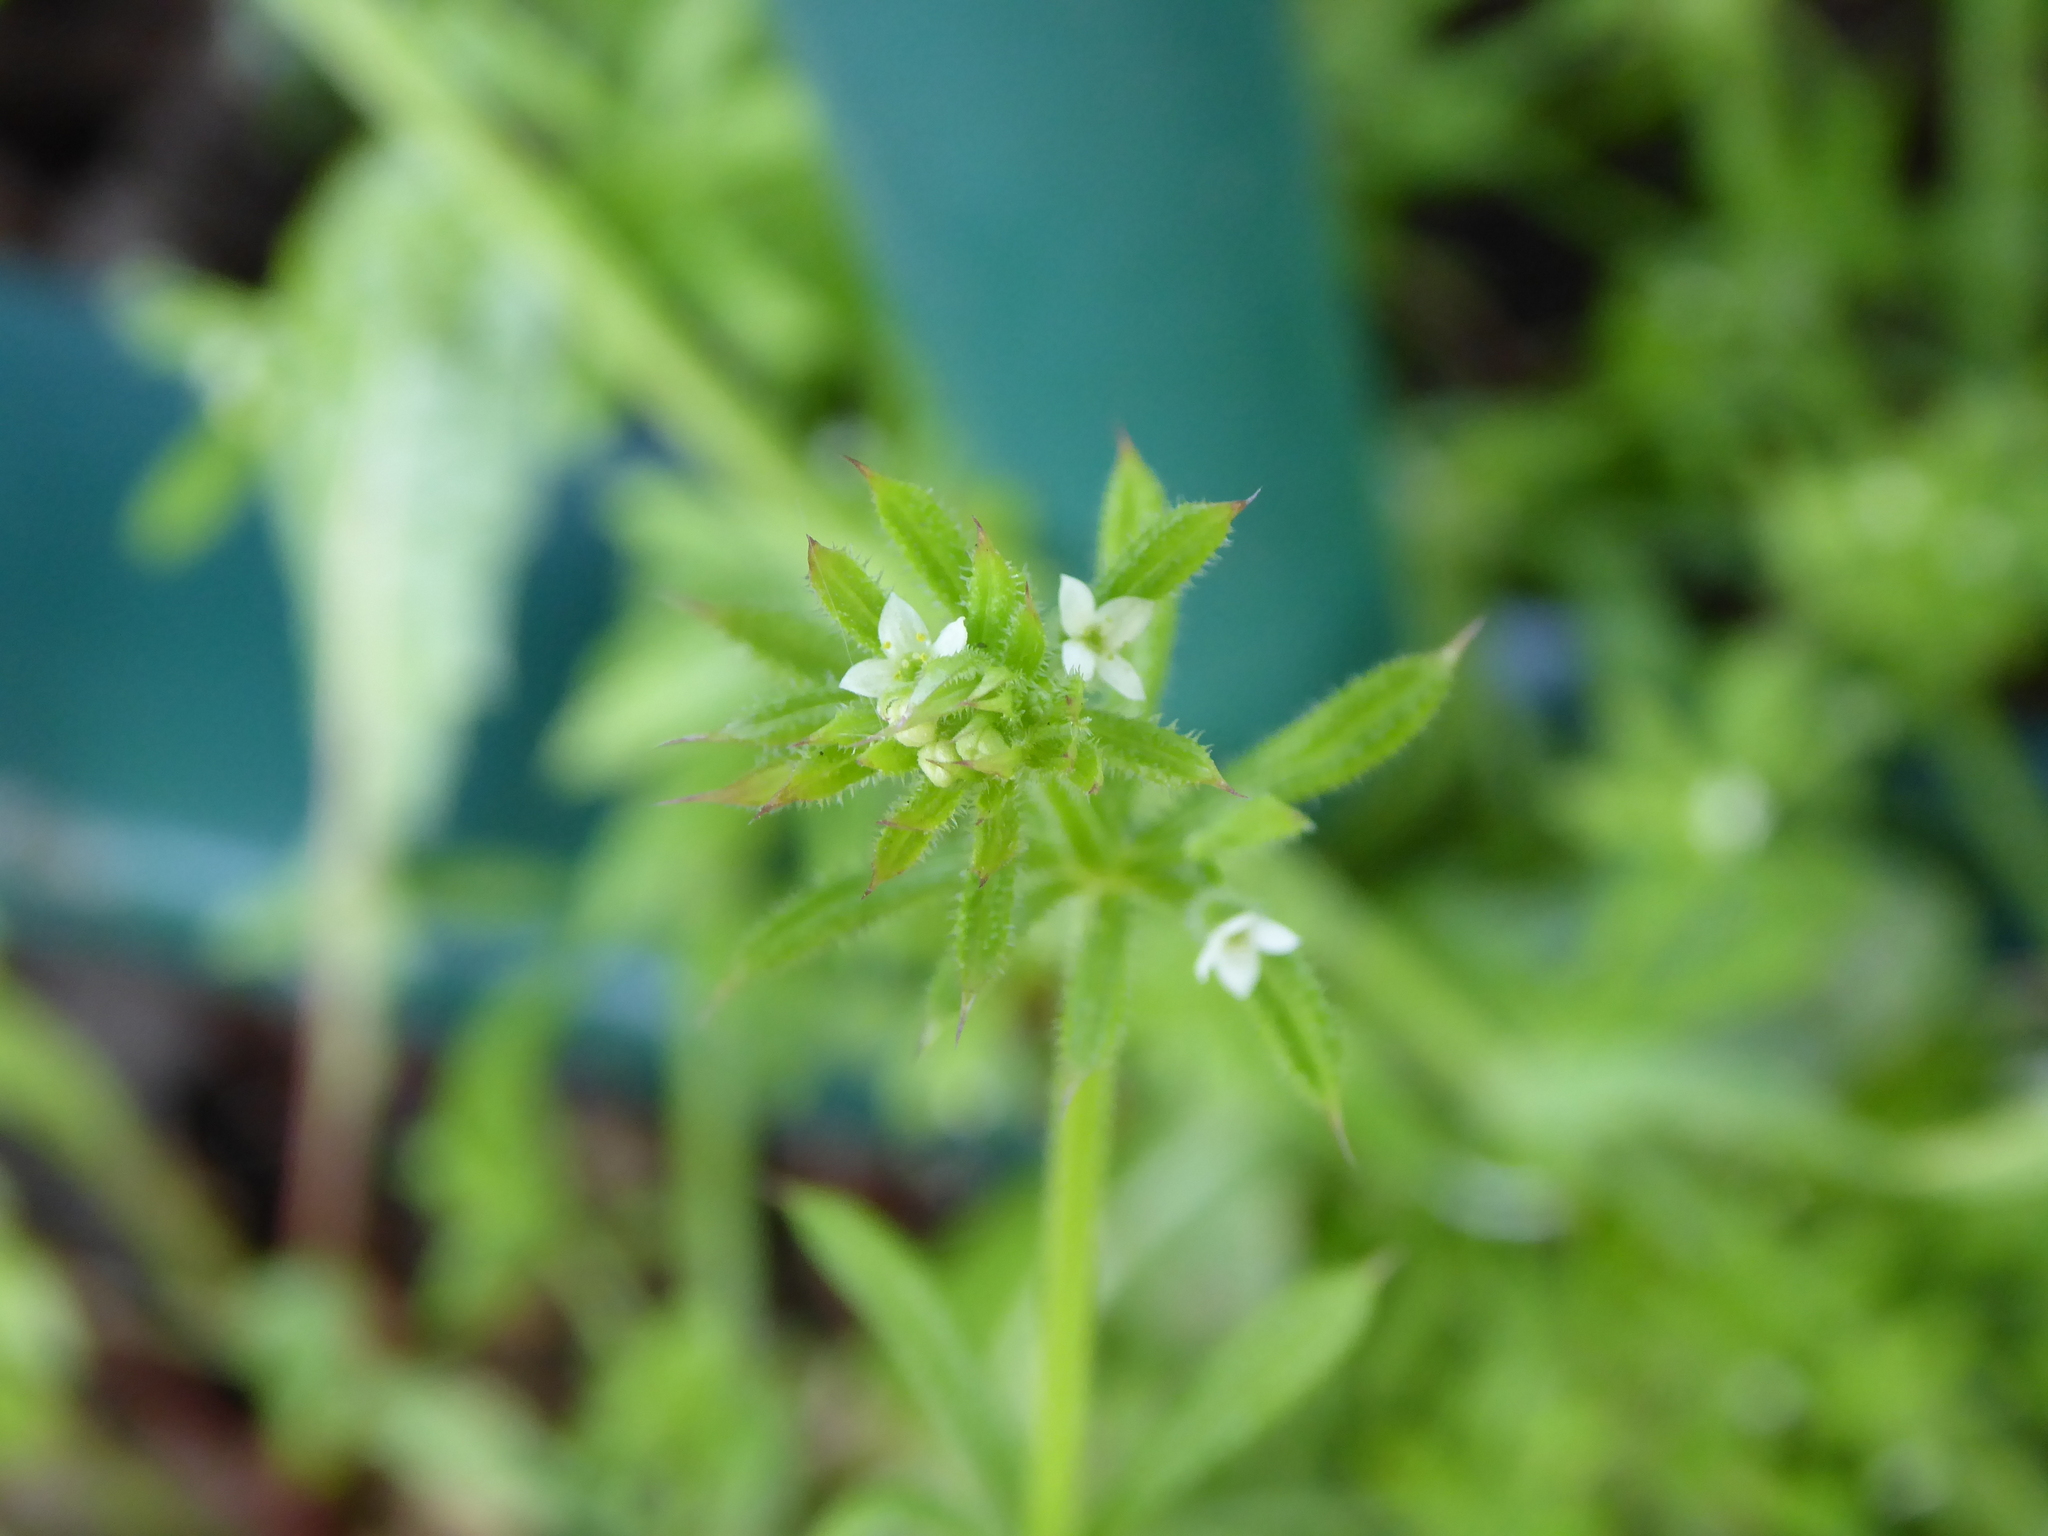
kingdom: Plantae
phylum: Tracheophyta
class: Magnoliopsida
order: Gentianales
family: Rubiaceae
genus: Galium
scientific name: Galium aparine
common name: Cleavers
